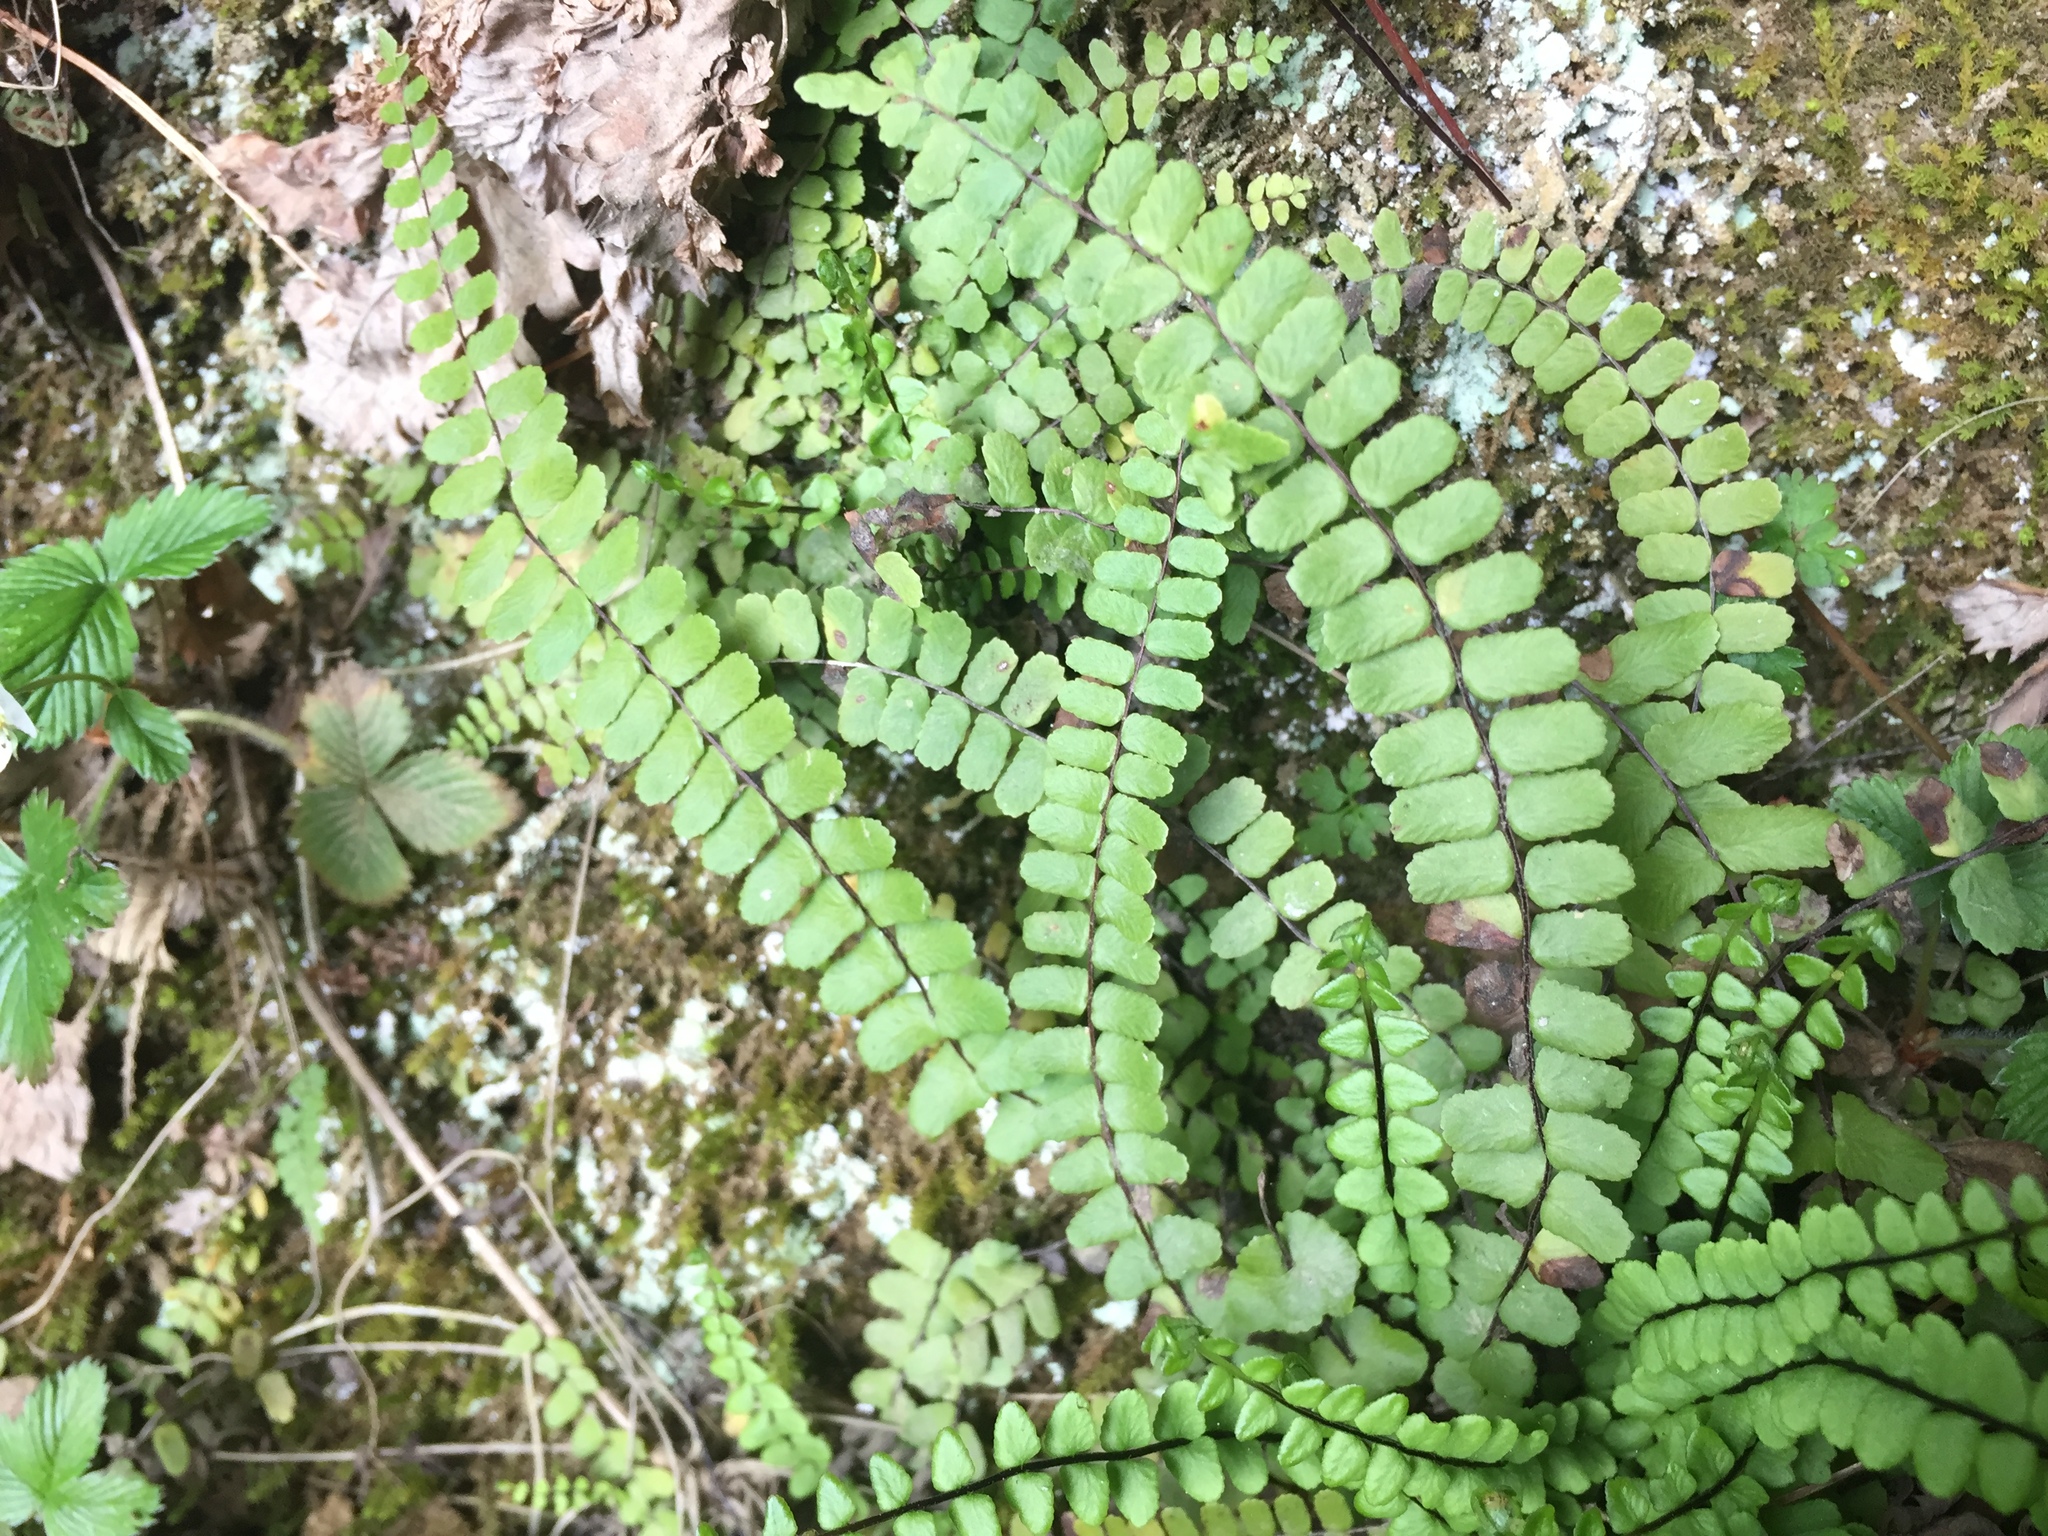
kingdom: Plantae
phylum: Tracheophyta
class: Polypodiopsida
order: Polypodiales
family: Aspleniaceae
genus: Asplenium
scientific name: Asplenium trichomanes
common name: Maidenhair spleenwort
